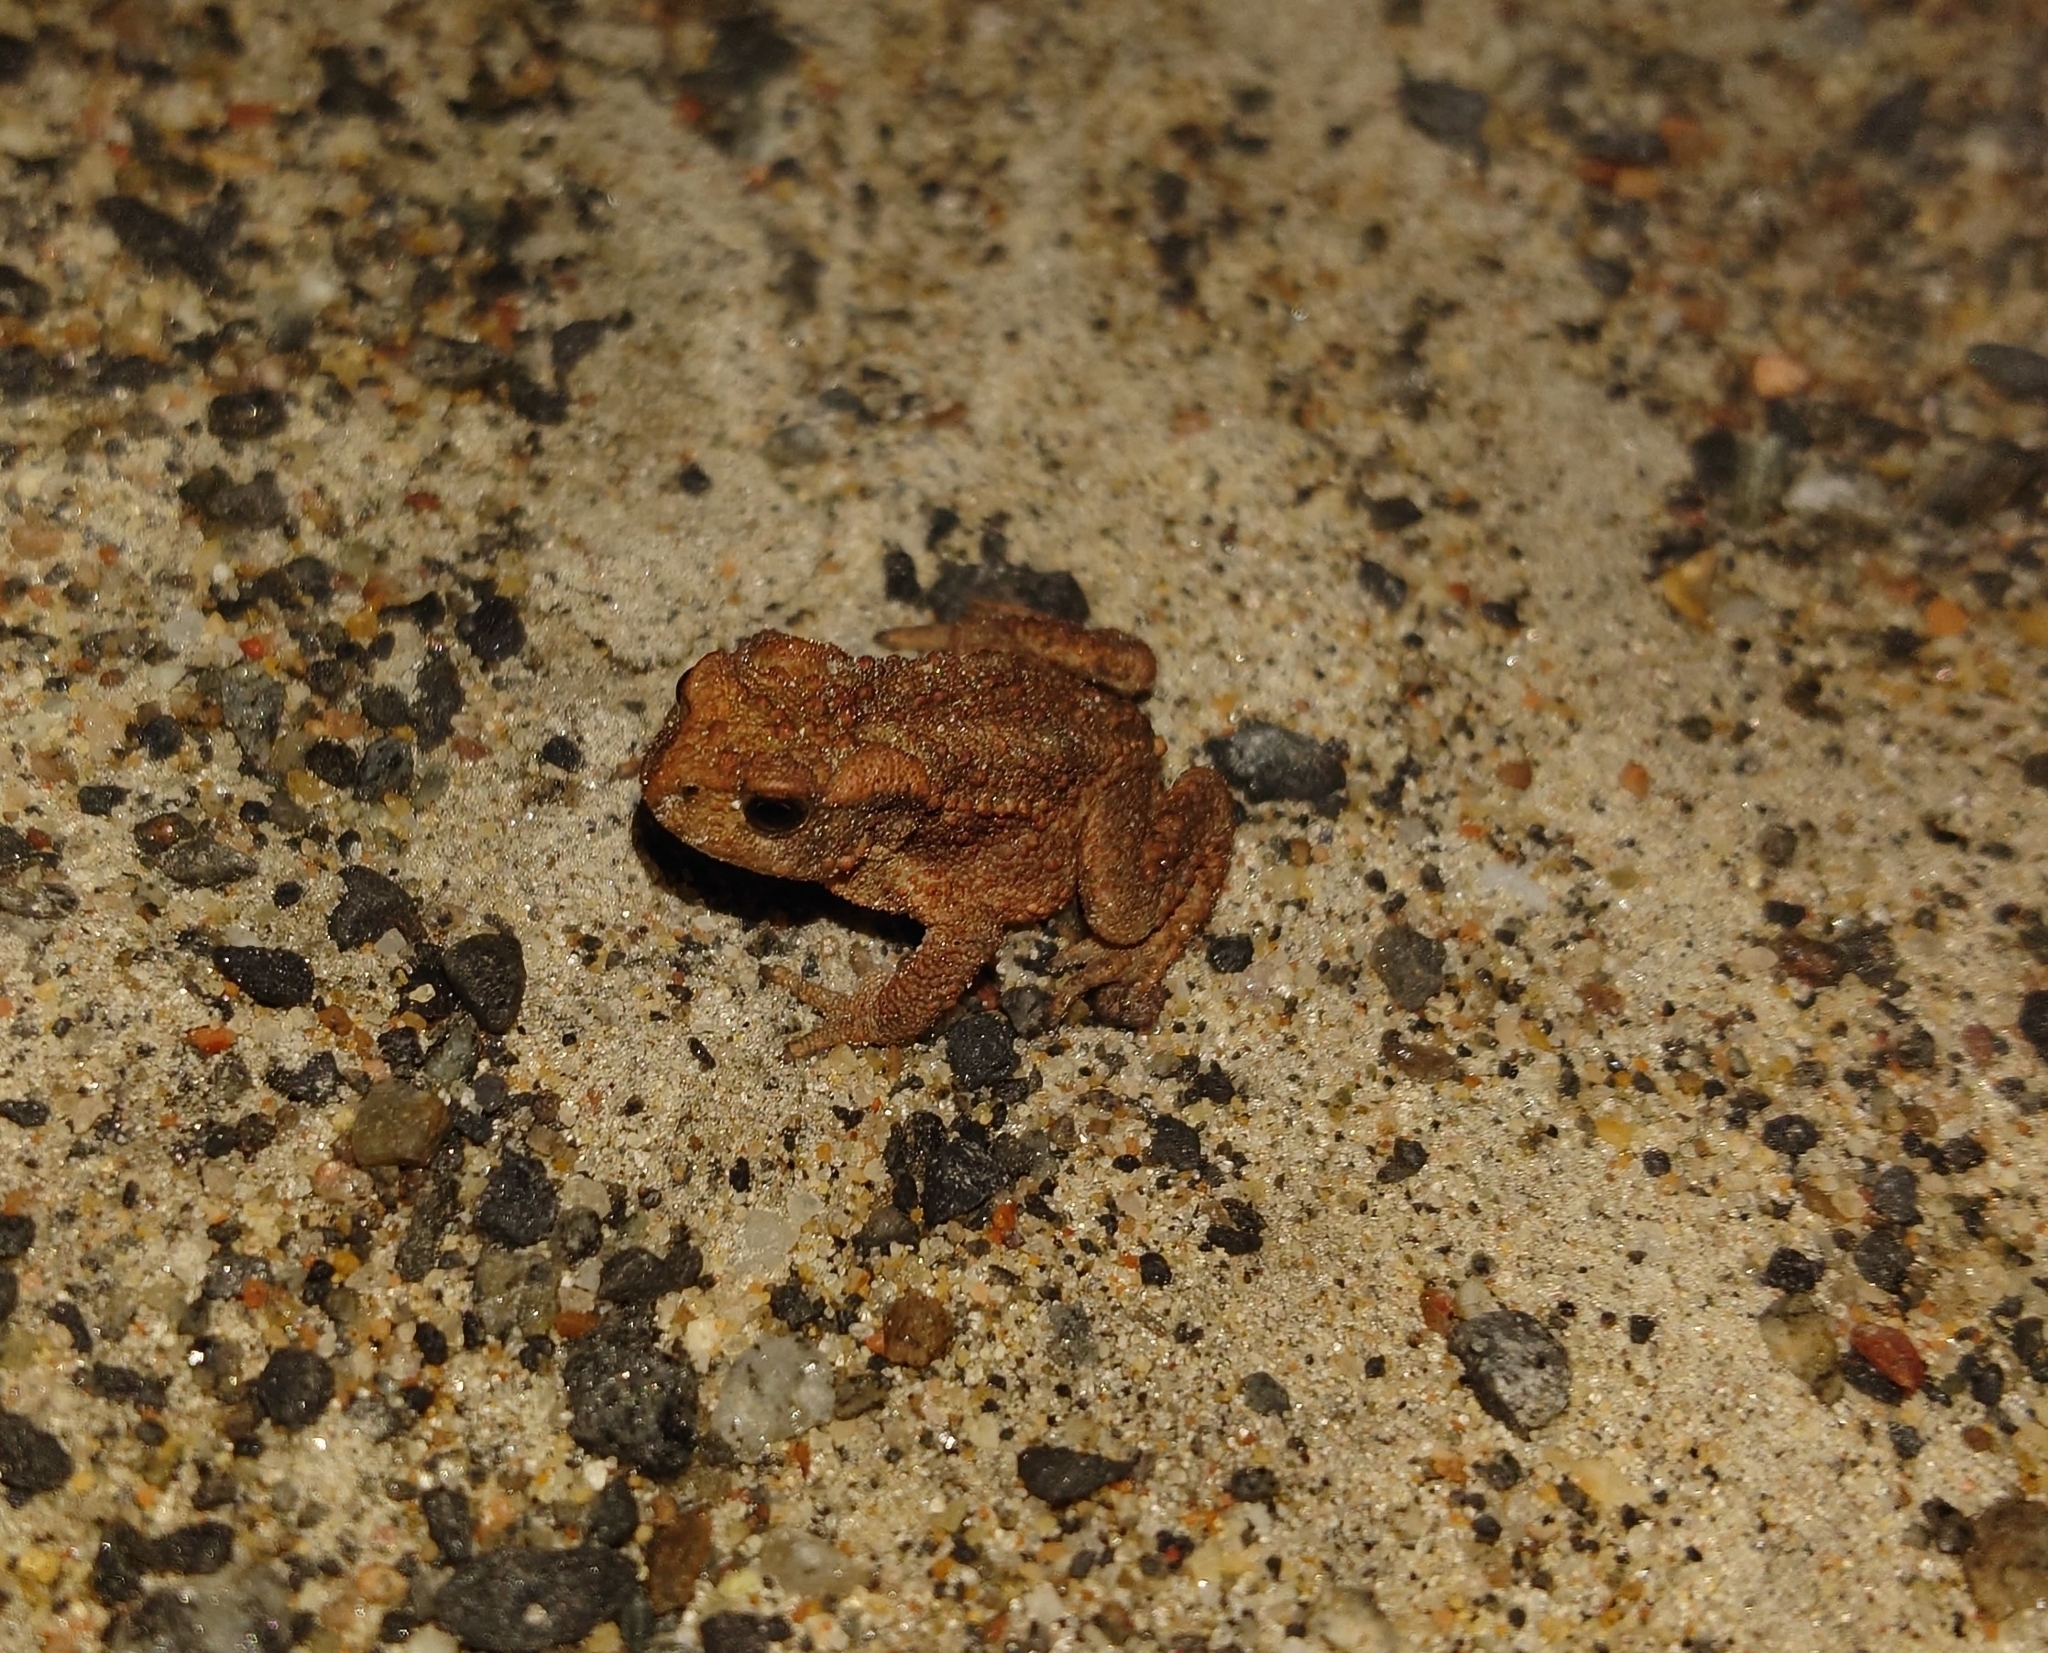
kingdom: Animalia
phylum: Chordata
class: Amphibia
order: Anura
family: Bufonidae
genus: Bufo
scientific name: Bufo bufo
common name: Common toad
